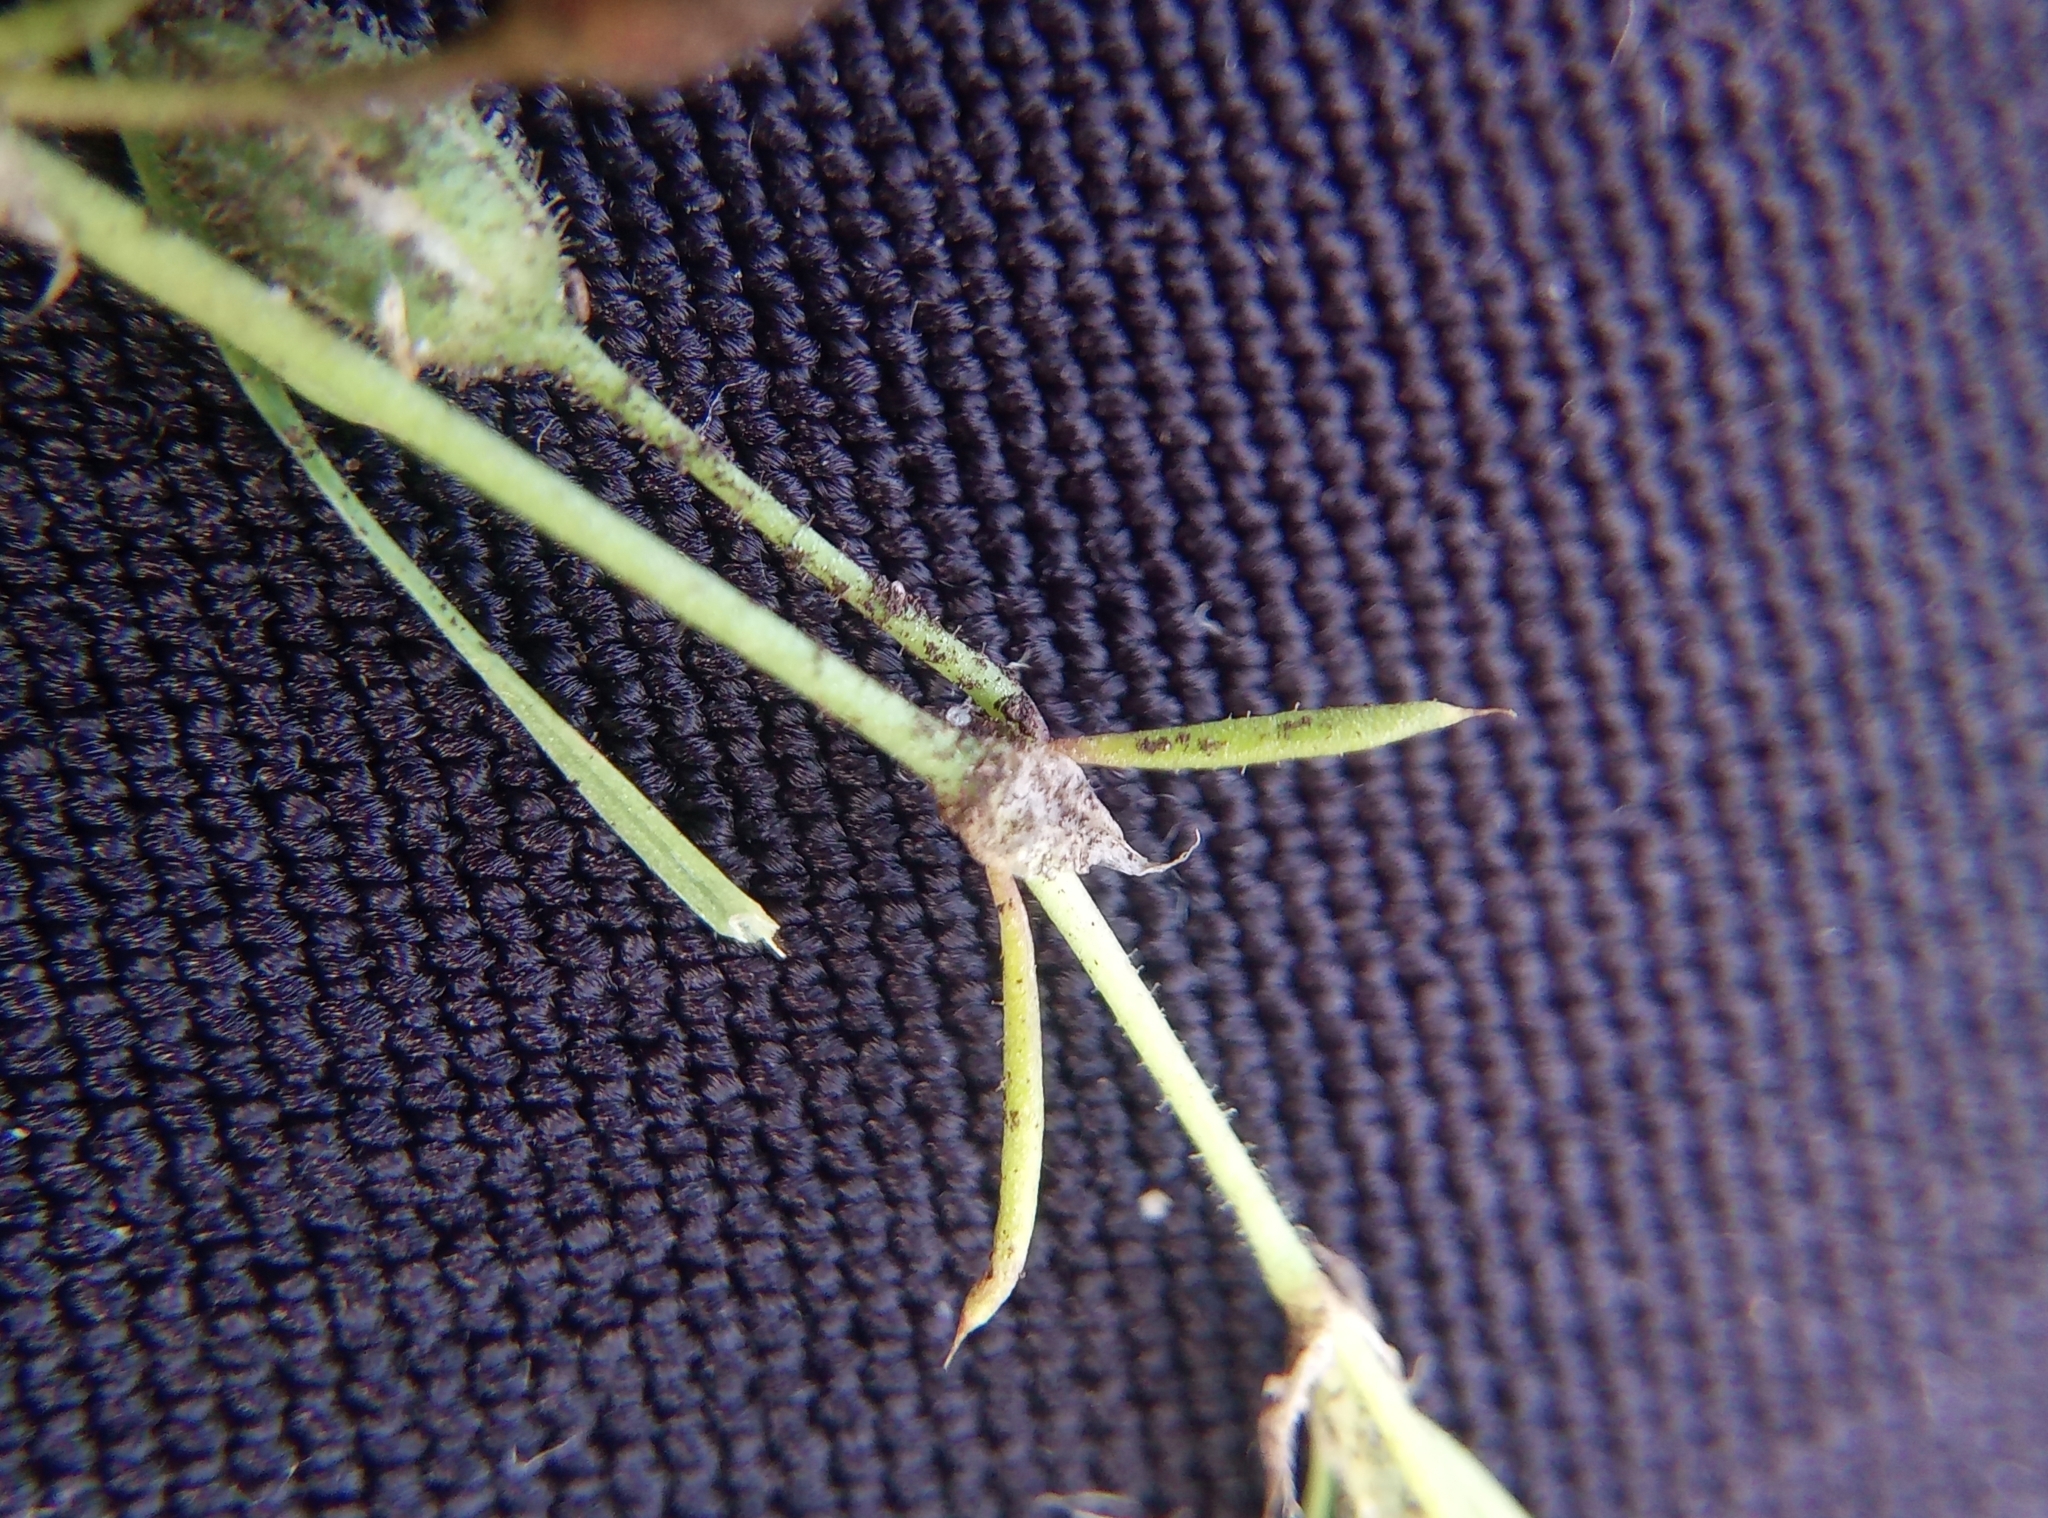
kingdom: Plantae
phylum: Tracheophyta
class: Magnoliopsida
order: Caryophyllales
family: Caryophyllaceae
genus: Spergularia
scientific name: Spergularia rubra
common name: Red sand-spurrey
